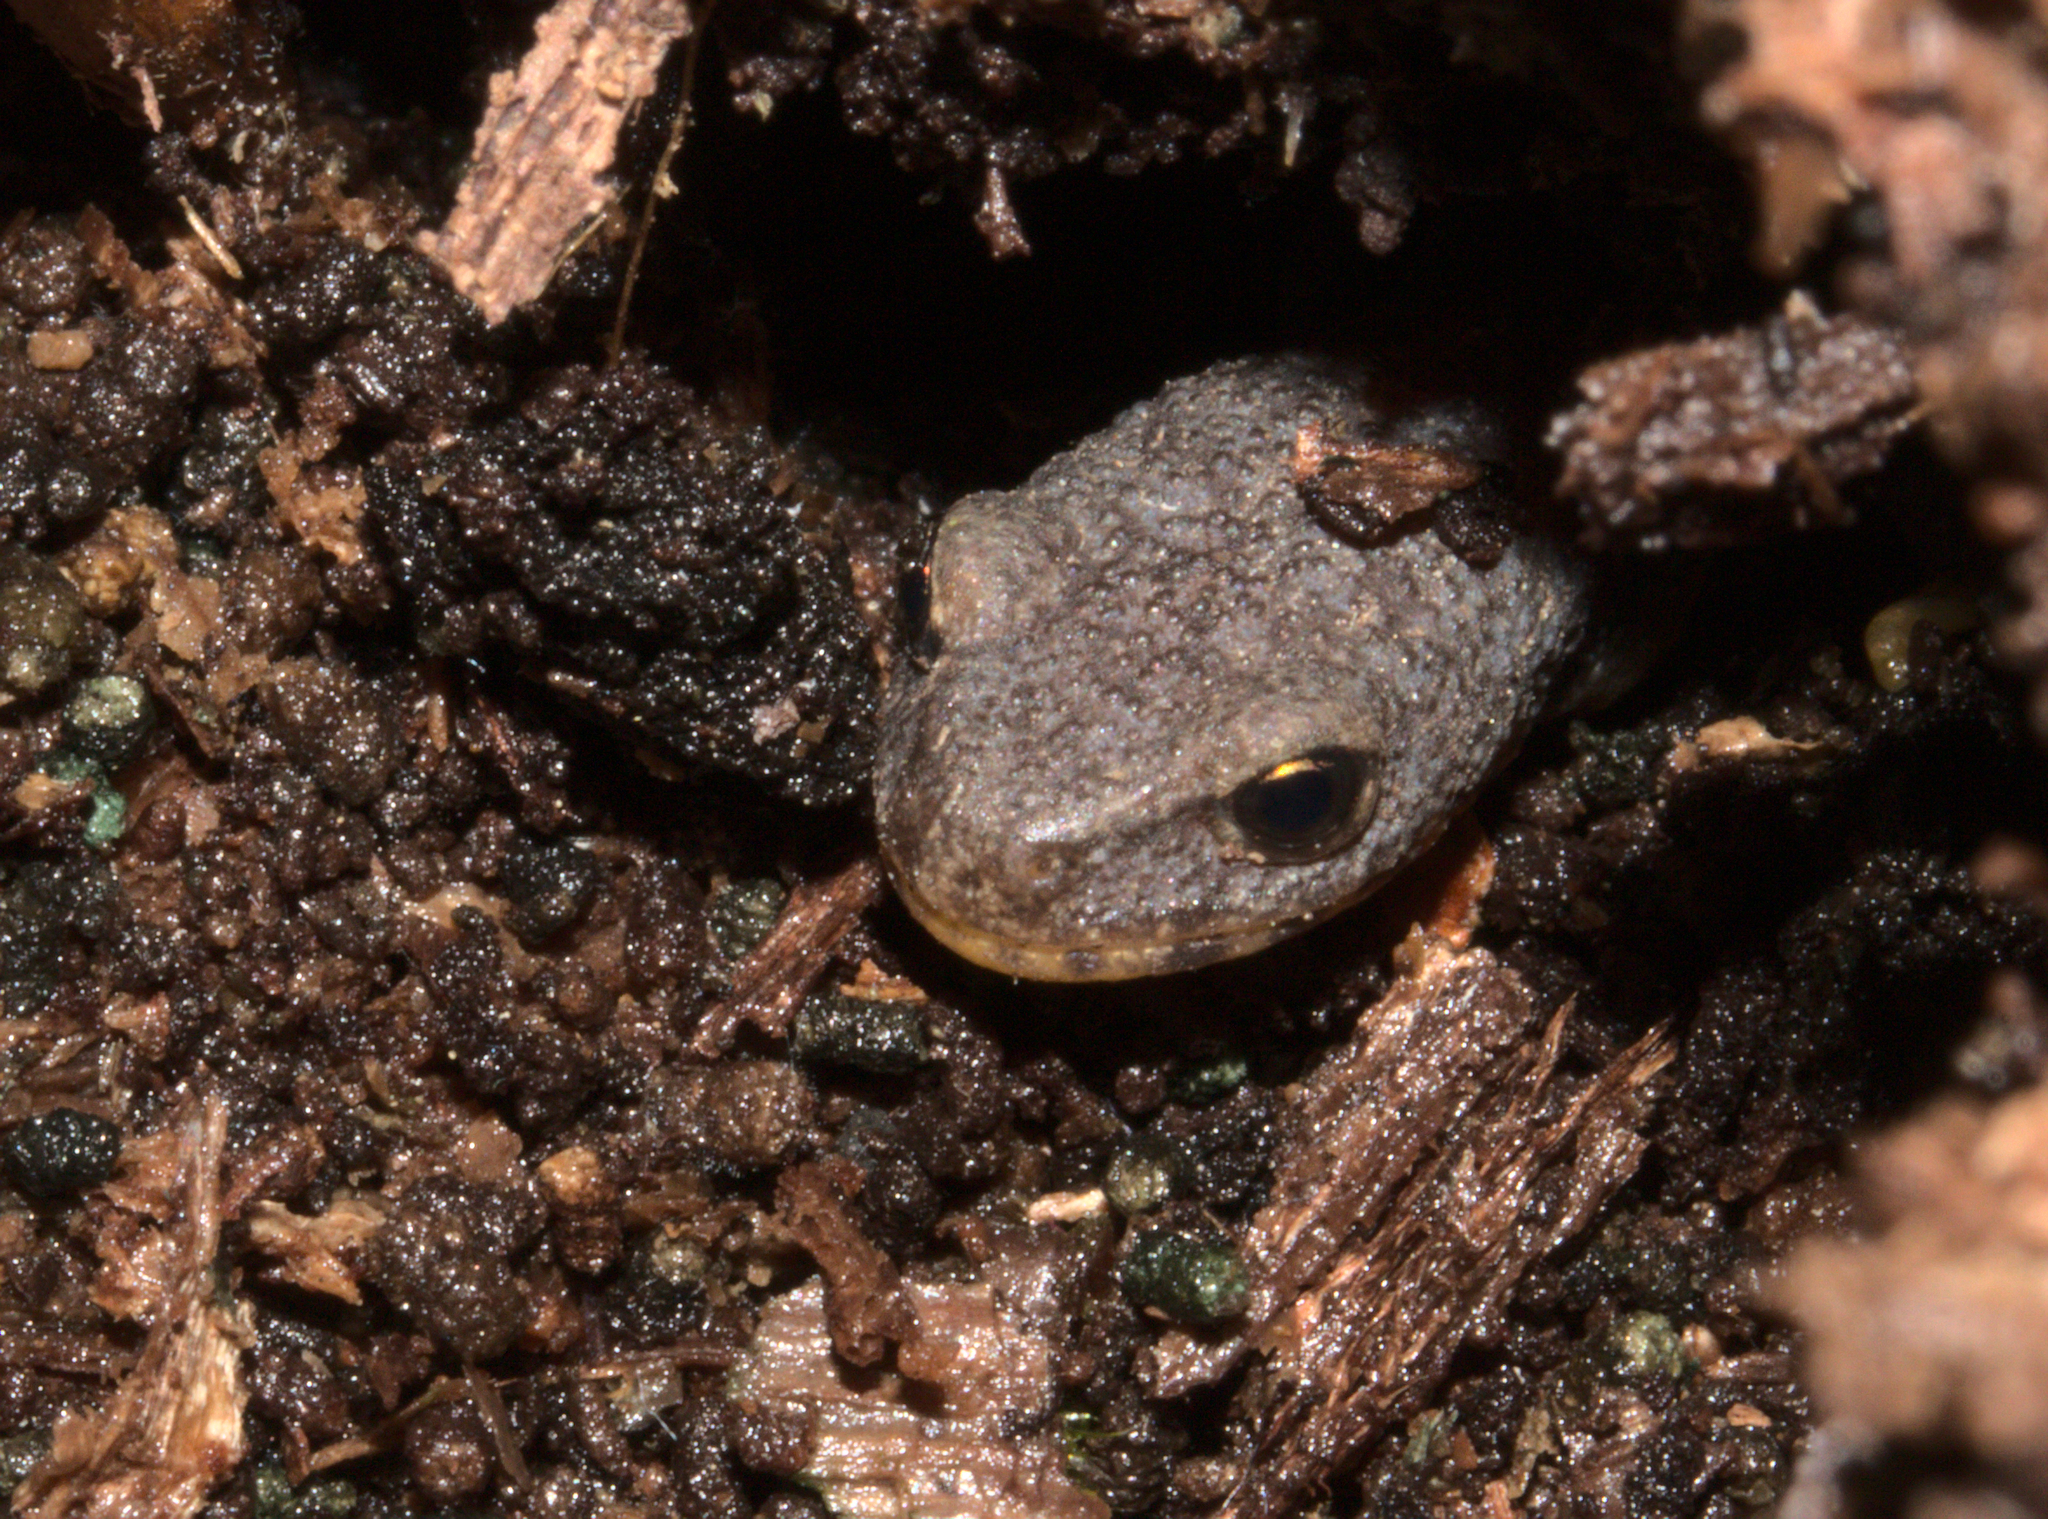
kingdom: Animalia
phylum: Chordata
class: Amphibia
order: Caudata
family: Salamandridae
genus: Ichthyosaura
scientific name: Ichthyosaura alpestris
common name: Alpine newt
